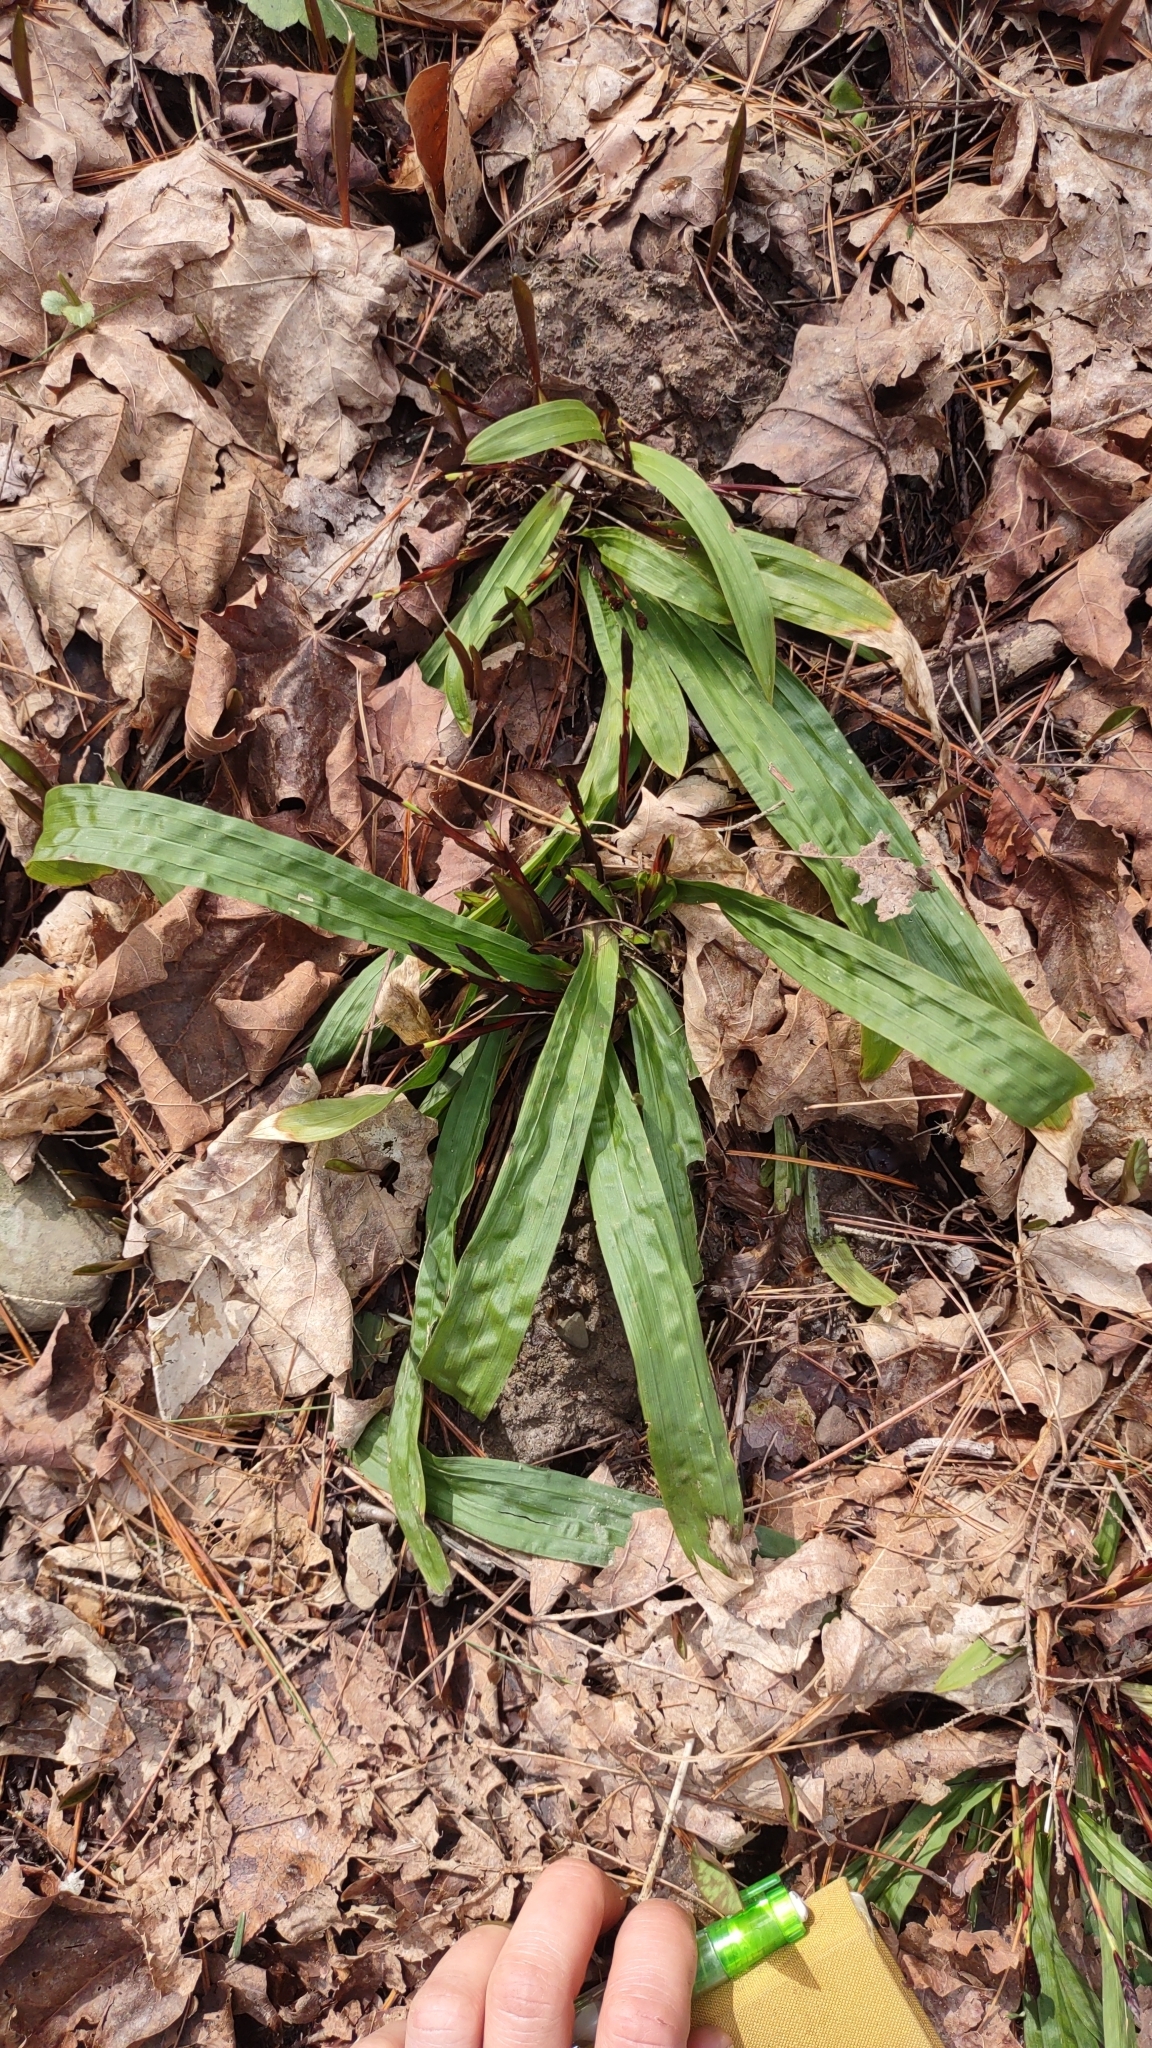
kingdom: Plantae
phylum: Tracheophyta
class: Liliopsida
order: Poales
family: Cyperaceae
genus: Carex
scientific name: Carex plantaginea
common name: Plantain-leaved sedge
